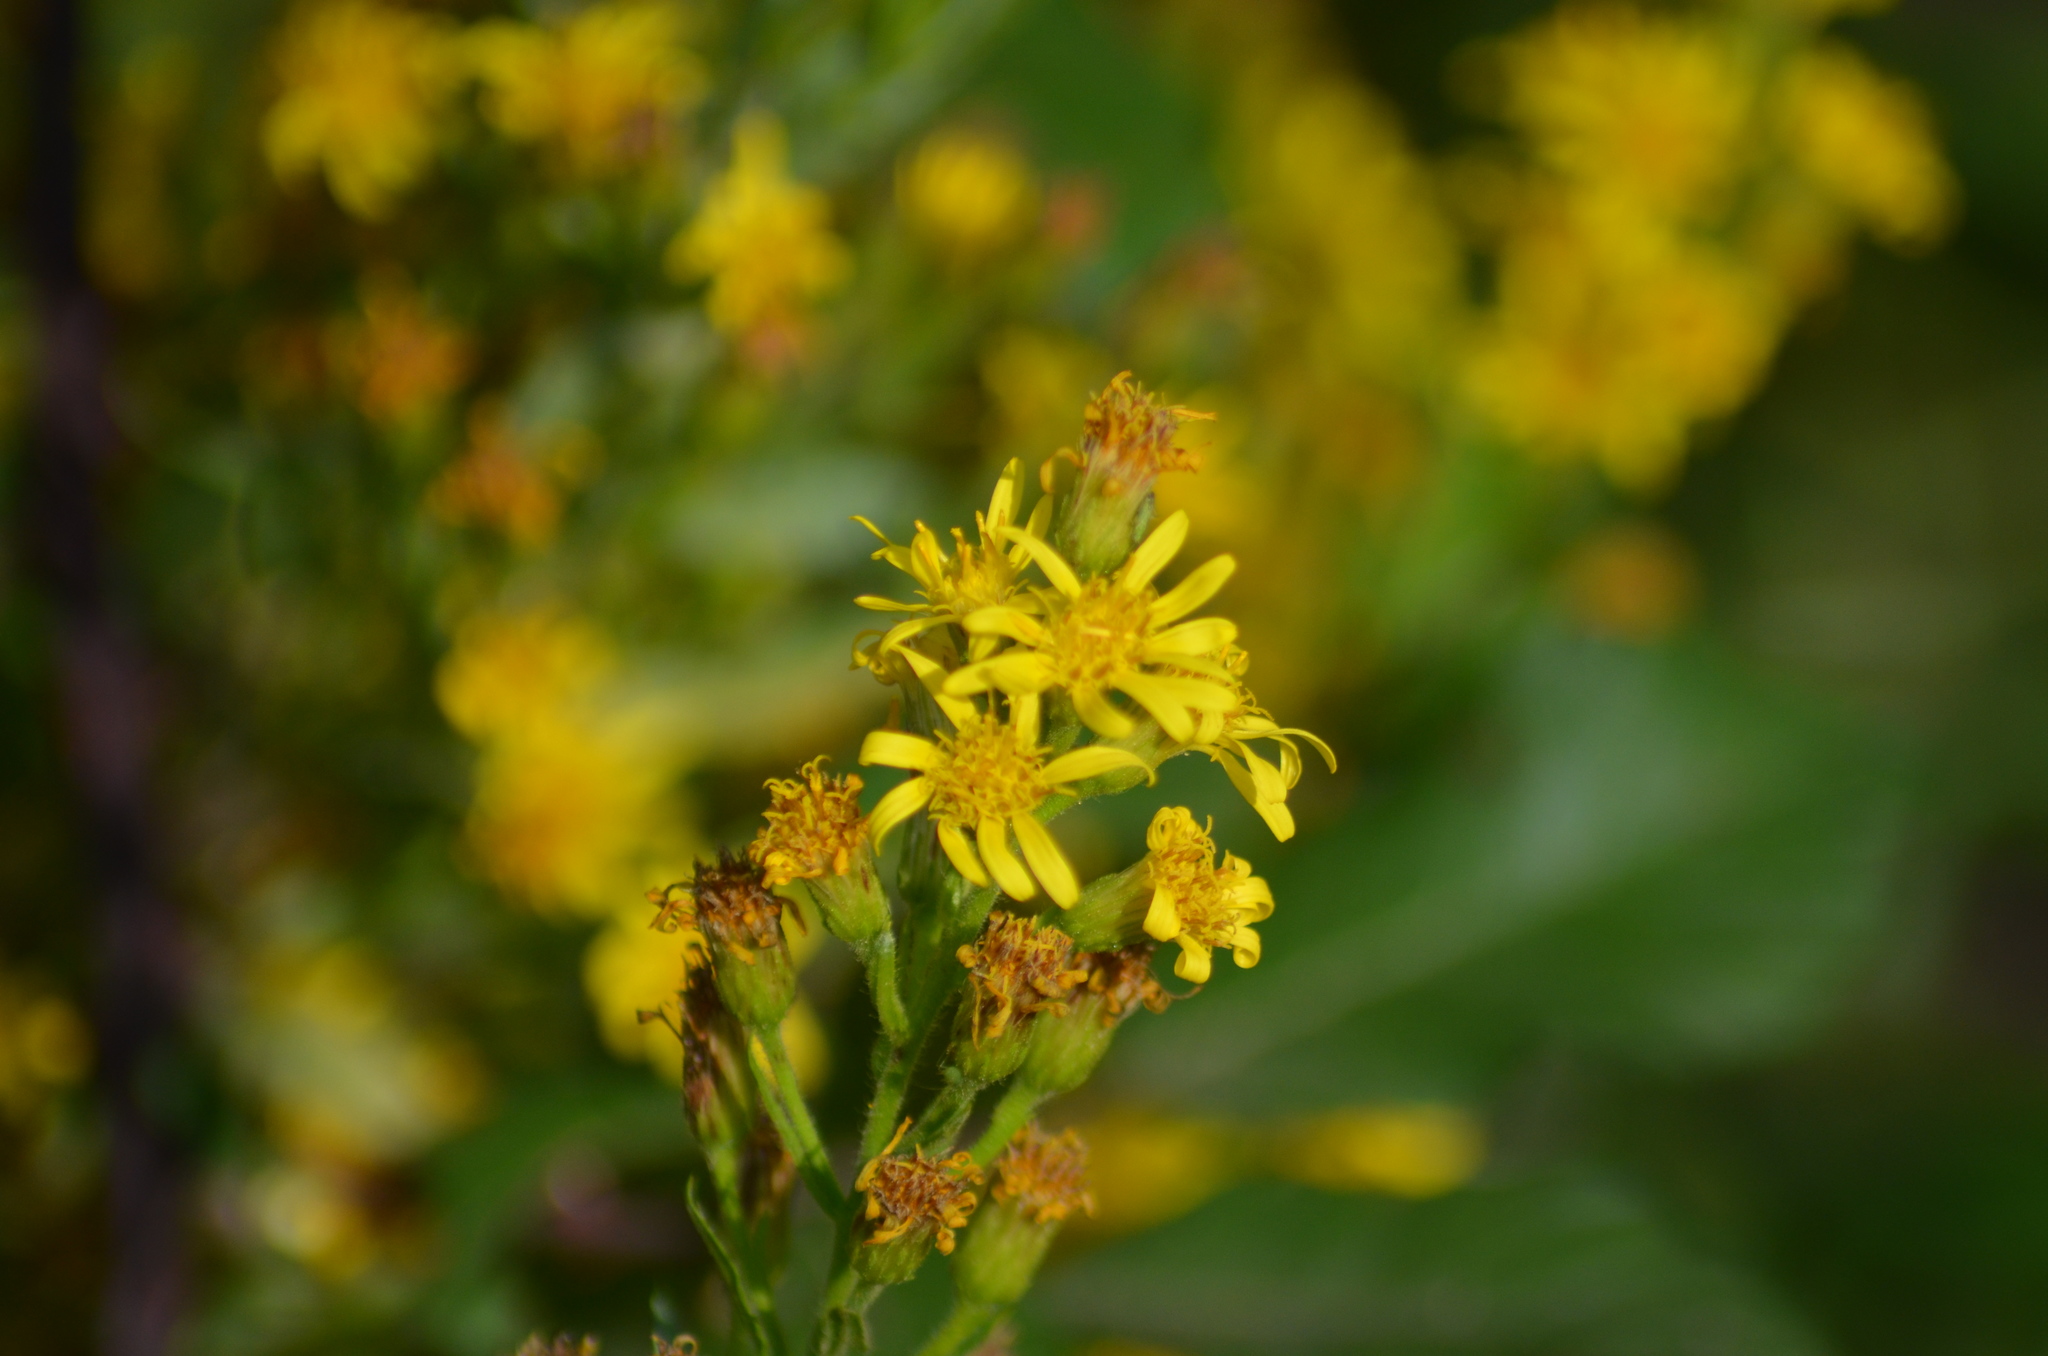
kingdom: Plantae
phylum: Tracheophyta
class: Magnoliopsida
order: Asterales
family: Asteraceae
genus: Dittrichia
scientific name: Dittrichia viscosa
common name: Woody fleabane
